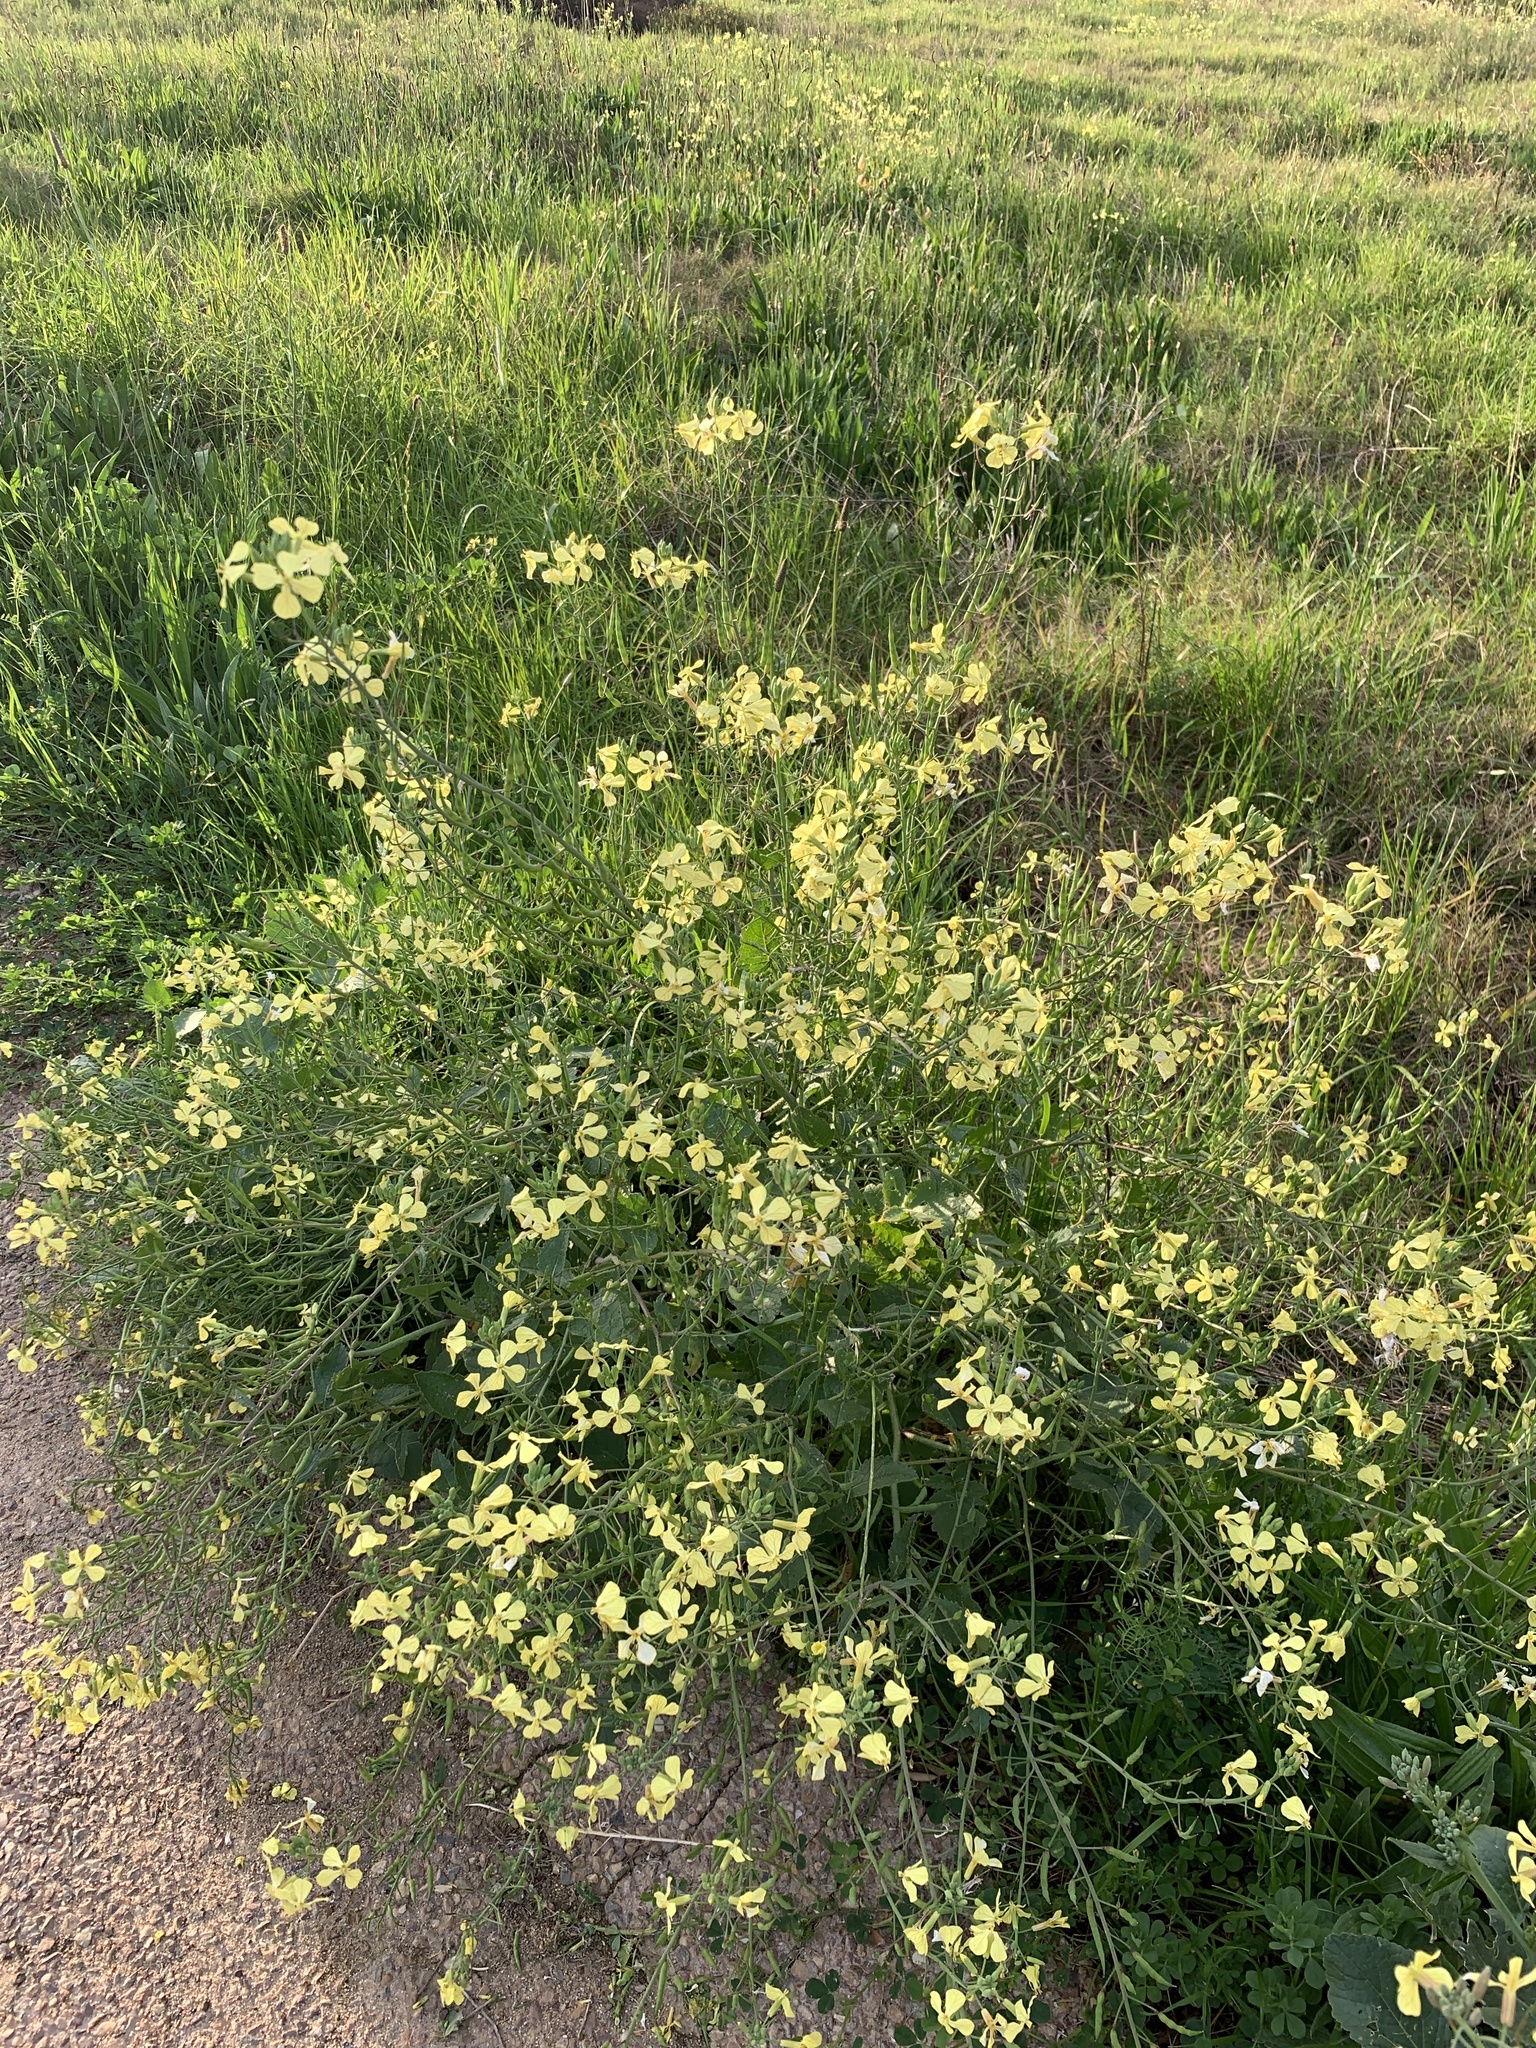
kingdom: Plantae
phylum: Tracheophyta
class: Magnoliopsida
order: Brassicales
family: Brassicaceae
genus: Raphanus
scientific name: Raphanus raphanistrum
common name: Wild radish
